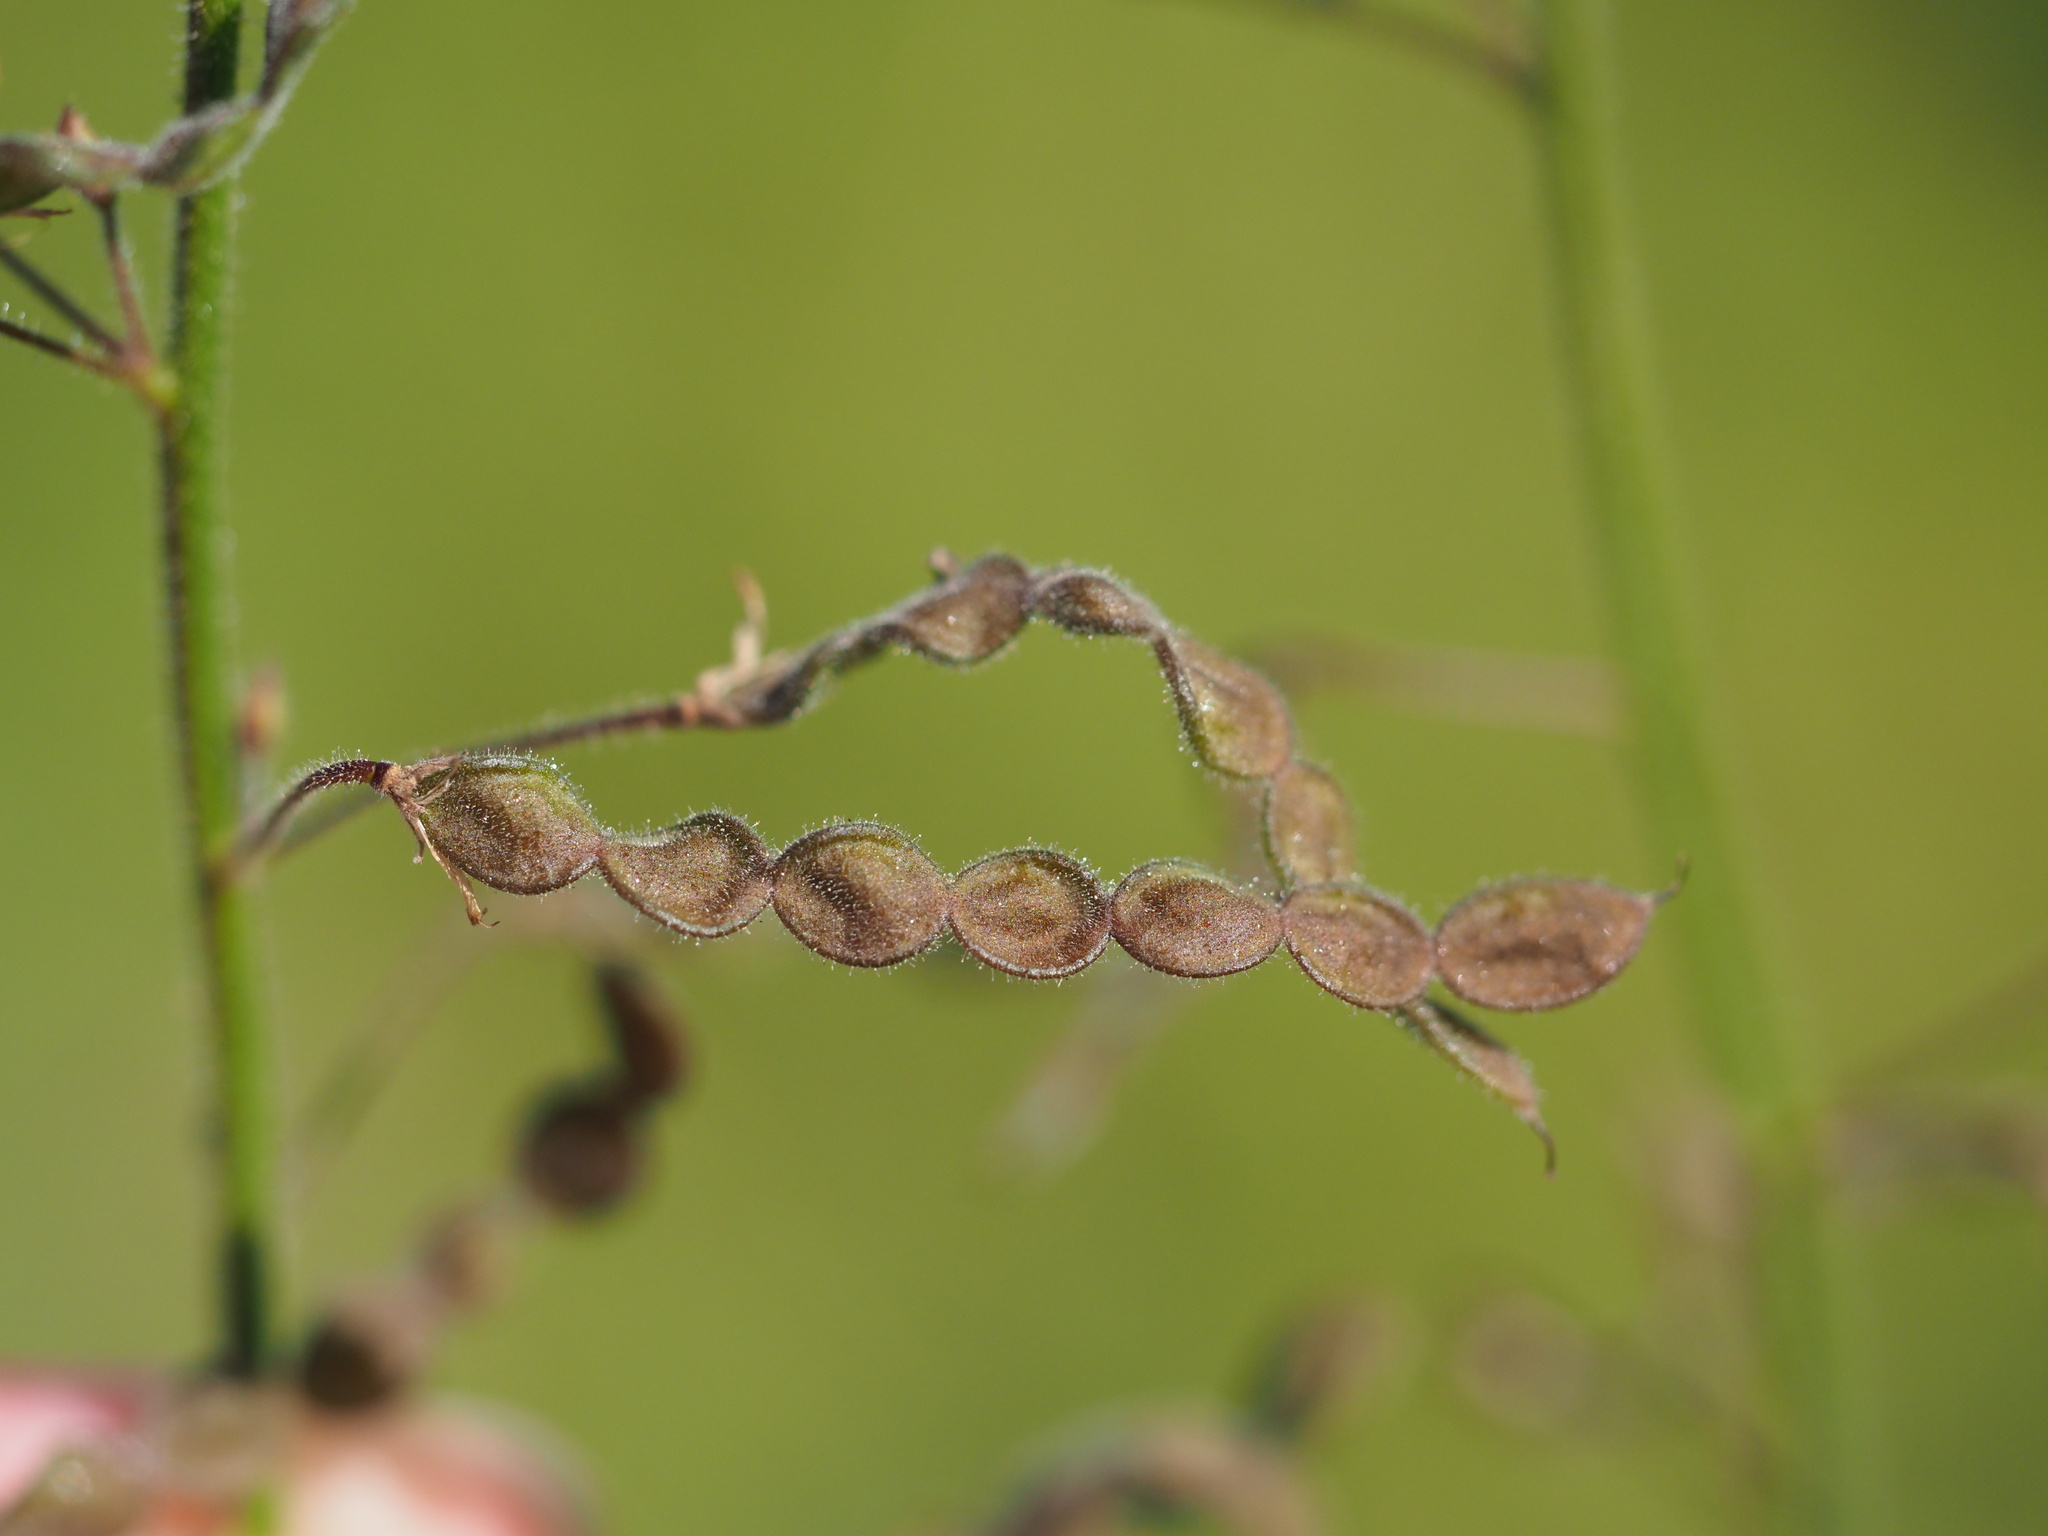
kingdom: Plantae
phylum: Tracheophyta
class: Magnoliopsida
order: Fabales
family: Fabaceae
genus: Desmodium
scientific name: Desmodium tortuosum
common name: Dixie ticktrefoil
